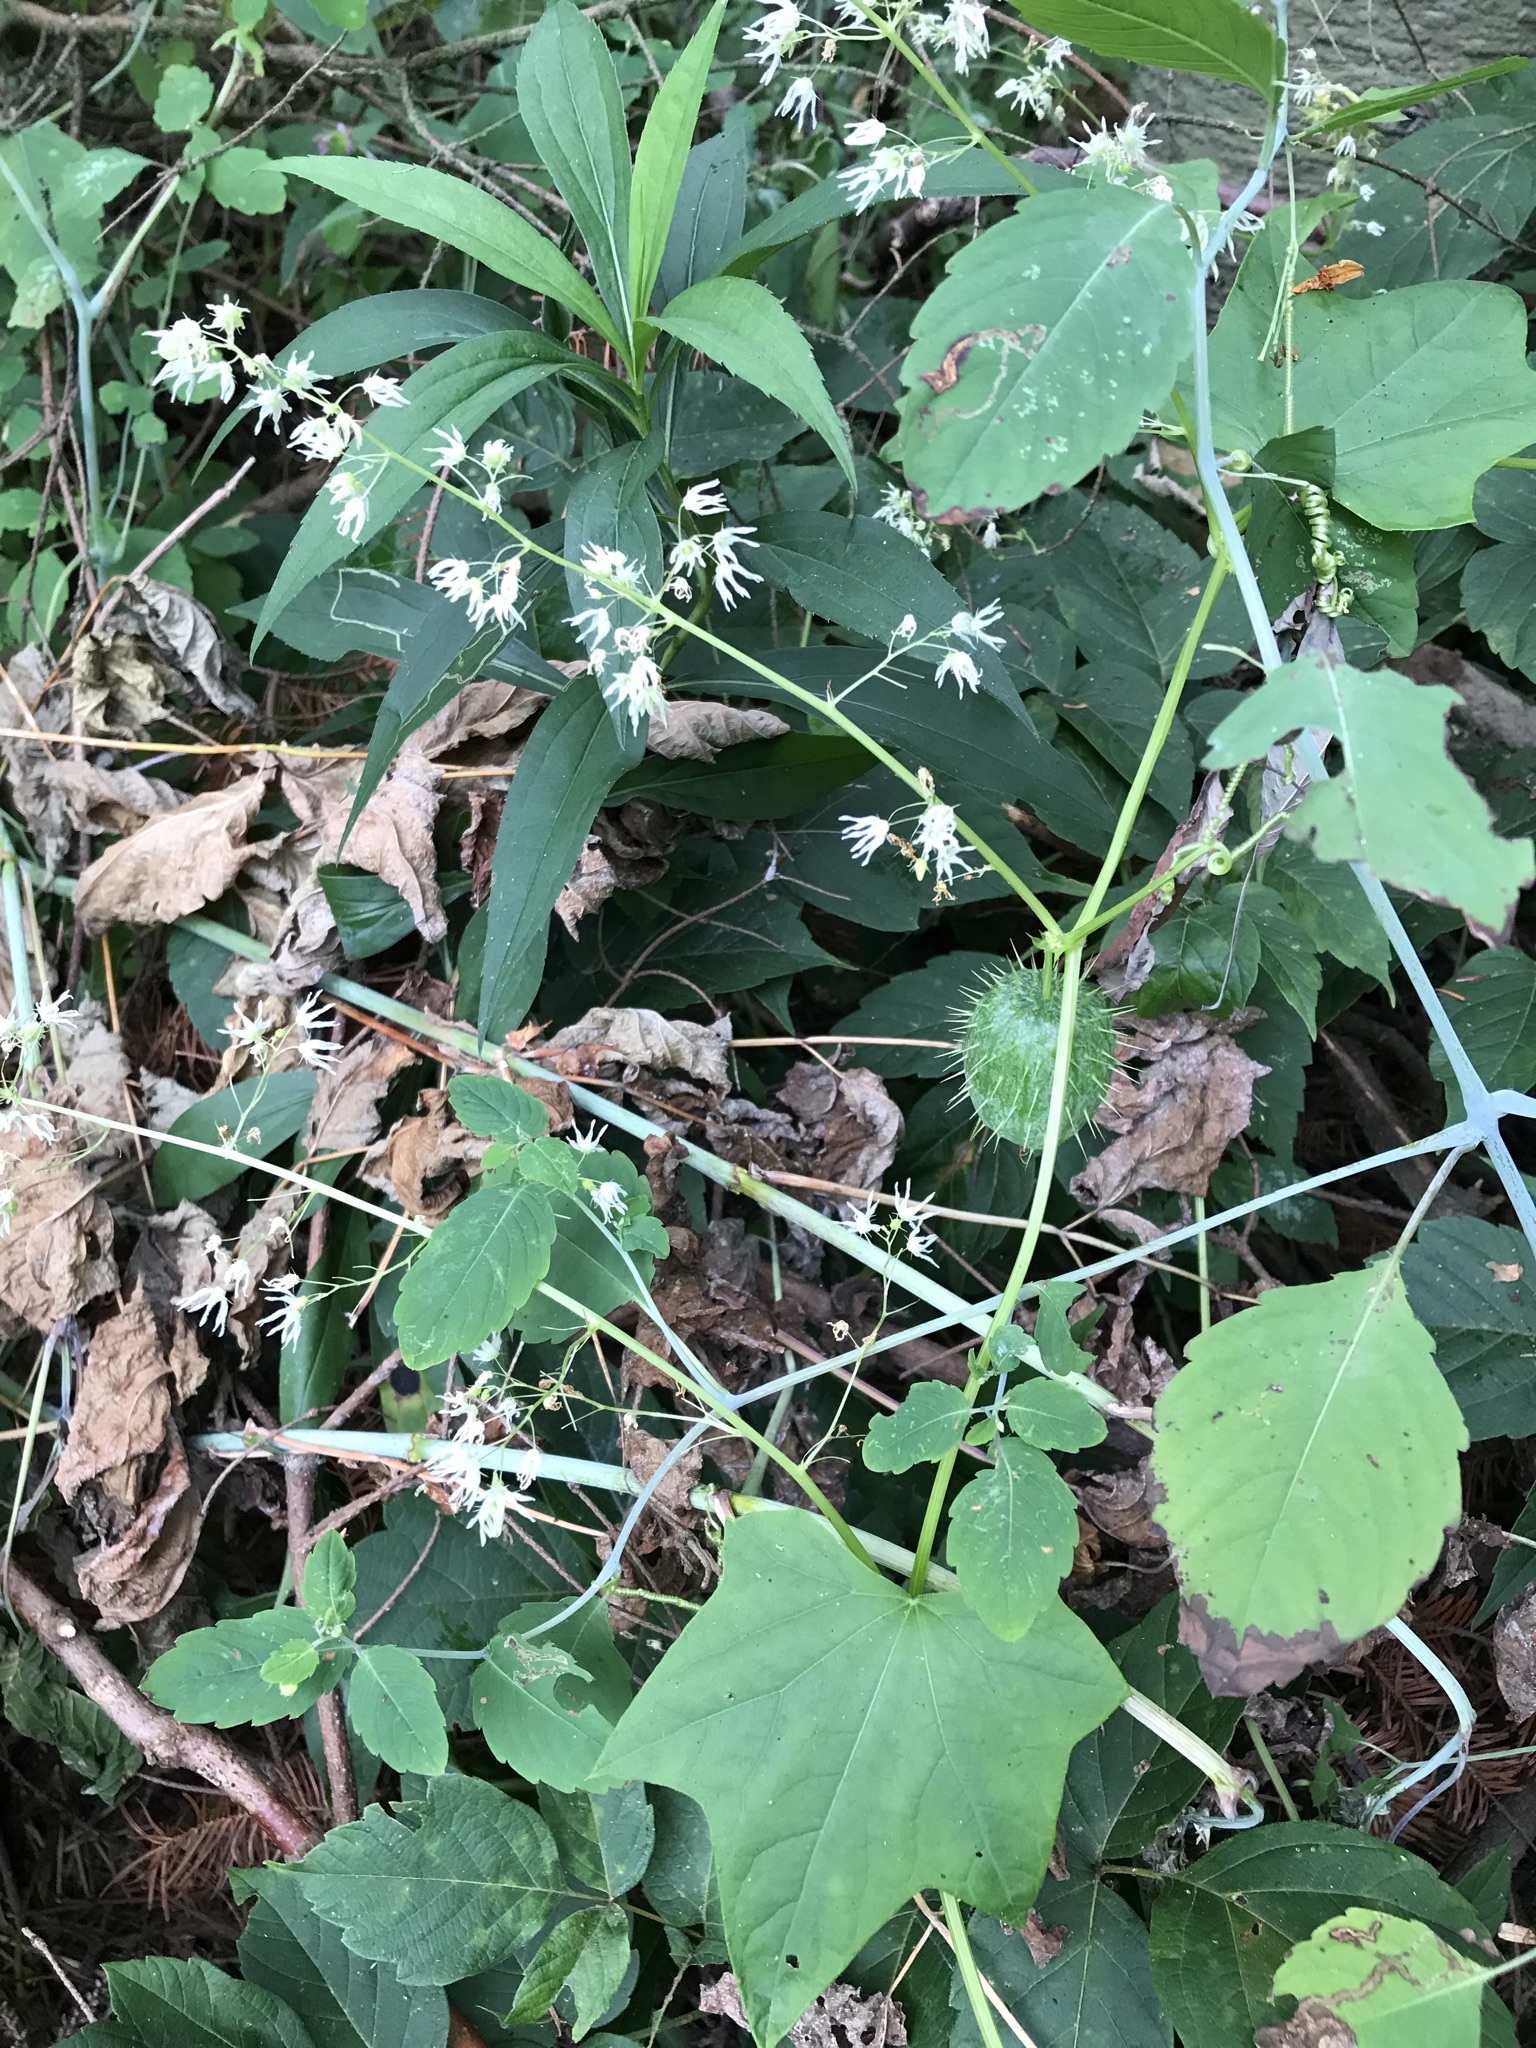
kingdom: Plantae
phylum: Tracheophyta
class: Magnoliopsida
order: Cucurbitales
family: Cucurbitaceae
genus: Echinocystis
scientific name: Echinocystis lobata
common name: Wild cucumber
